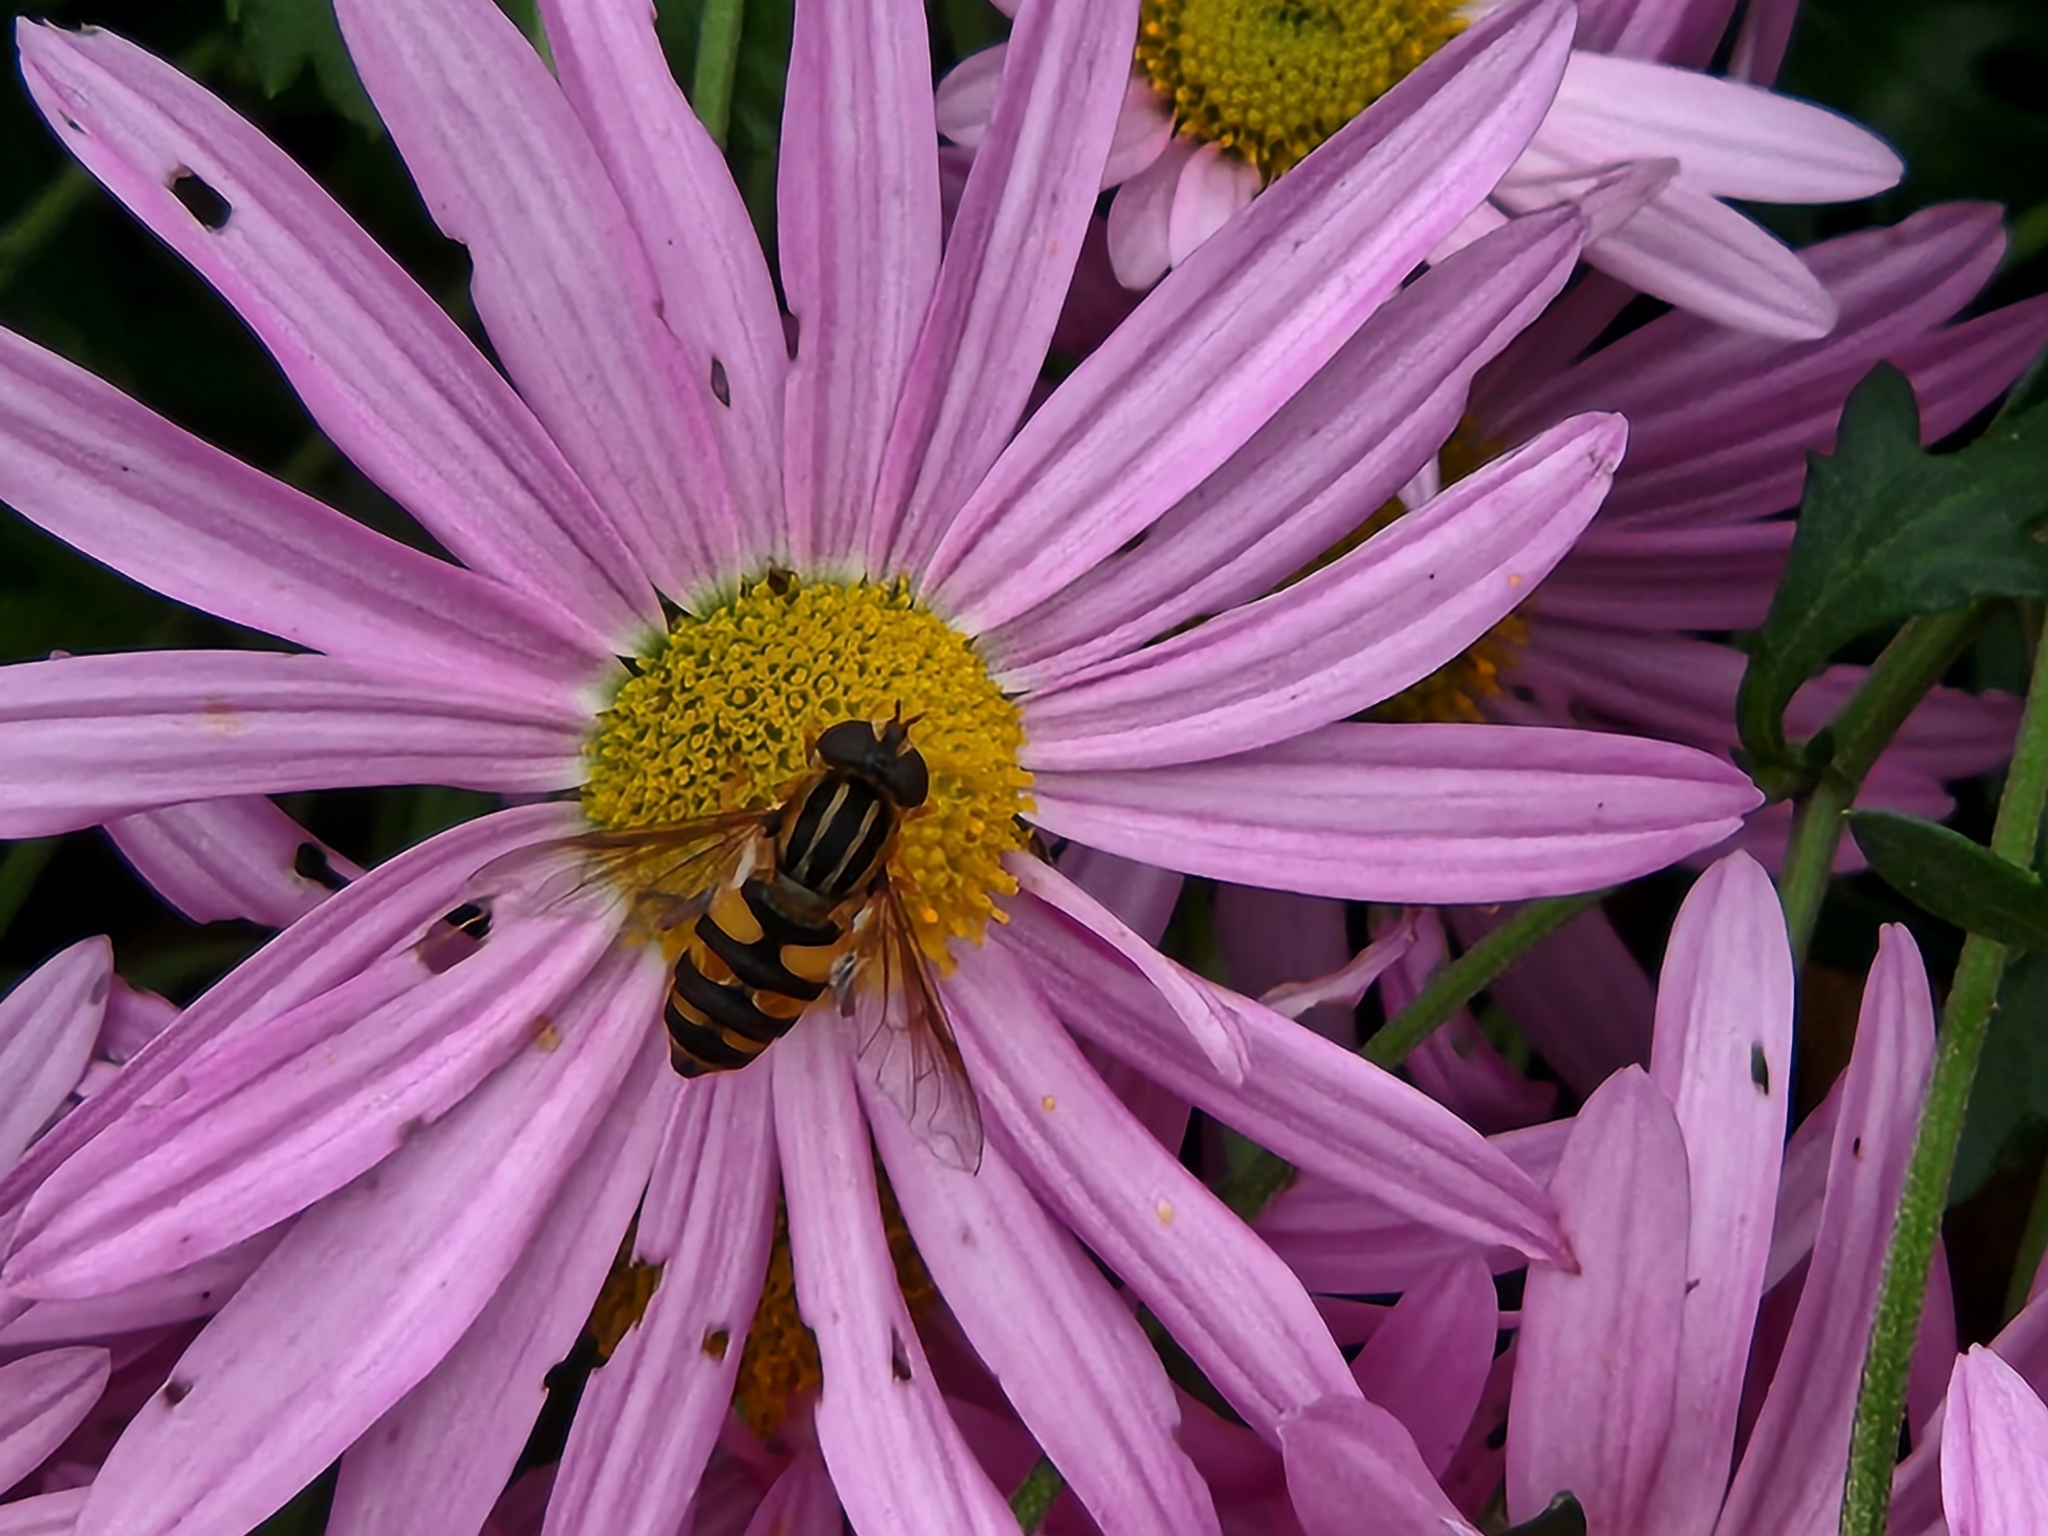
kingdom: Animalia
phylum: Arthropoda
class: Insecta
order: Diptera
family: Syrphidae
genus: Helophilus
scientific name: Helophilus fasciatus
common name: Narrow-headed marsh fly
